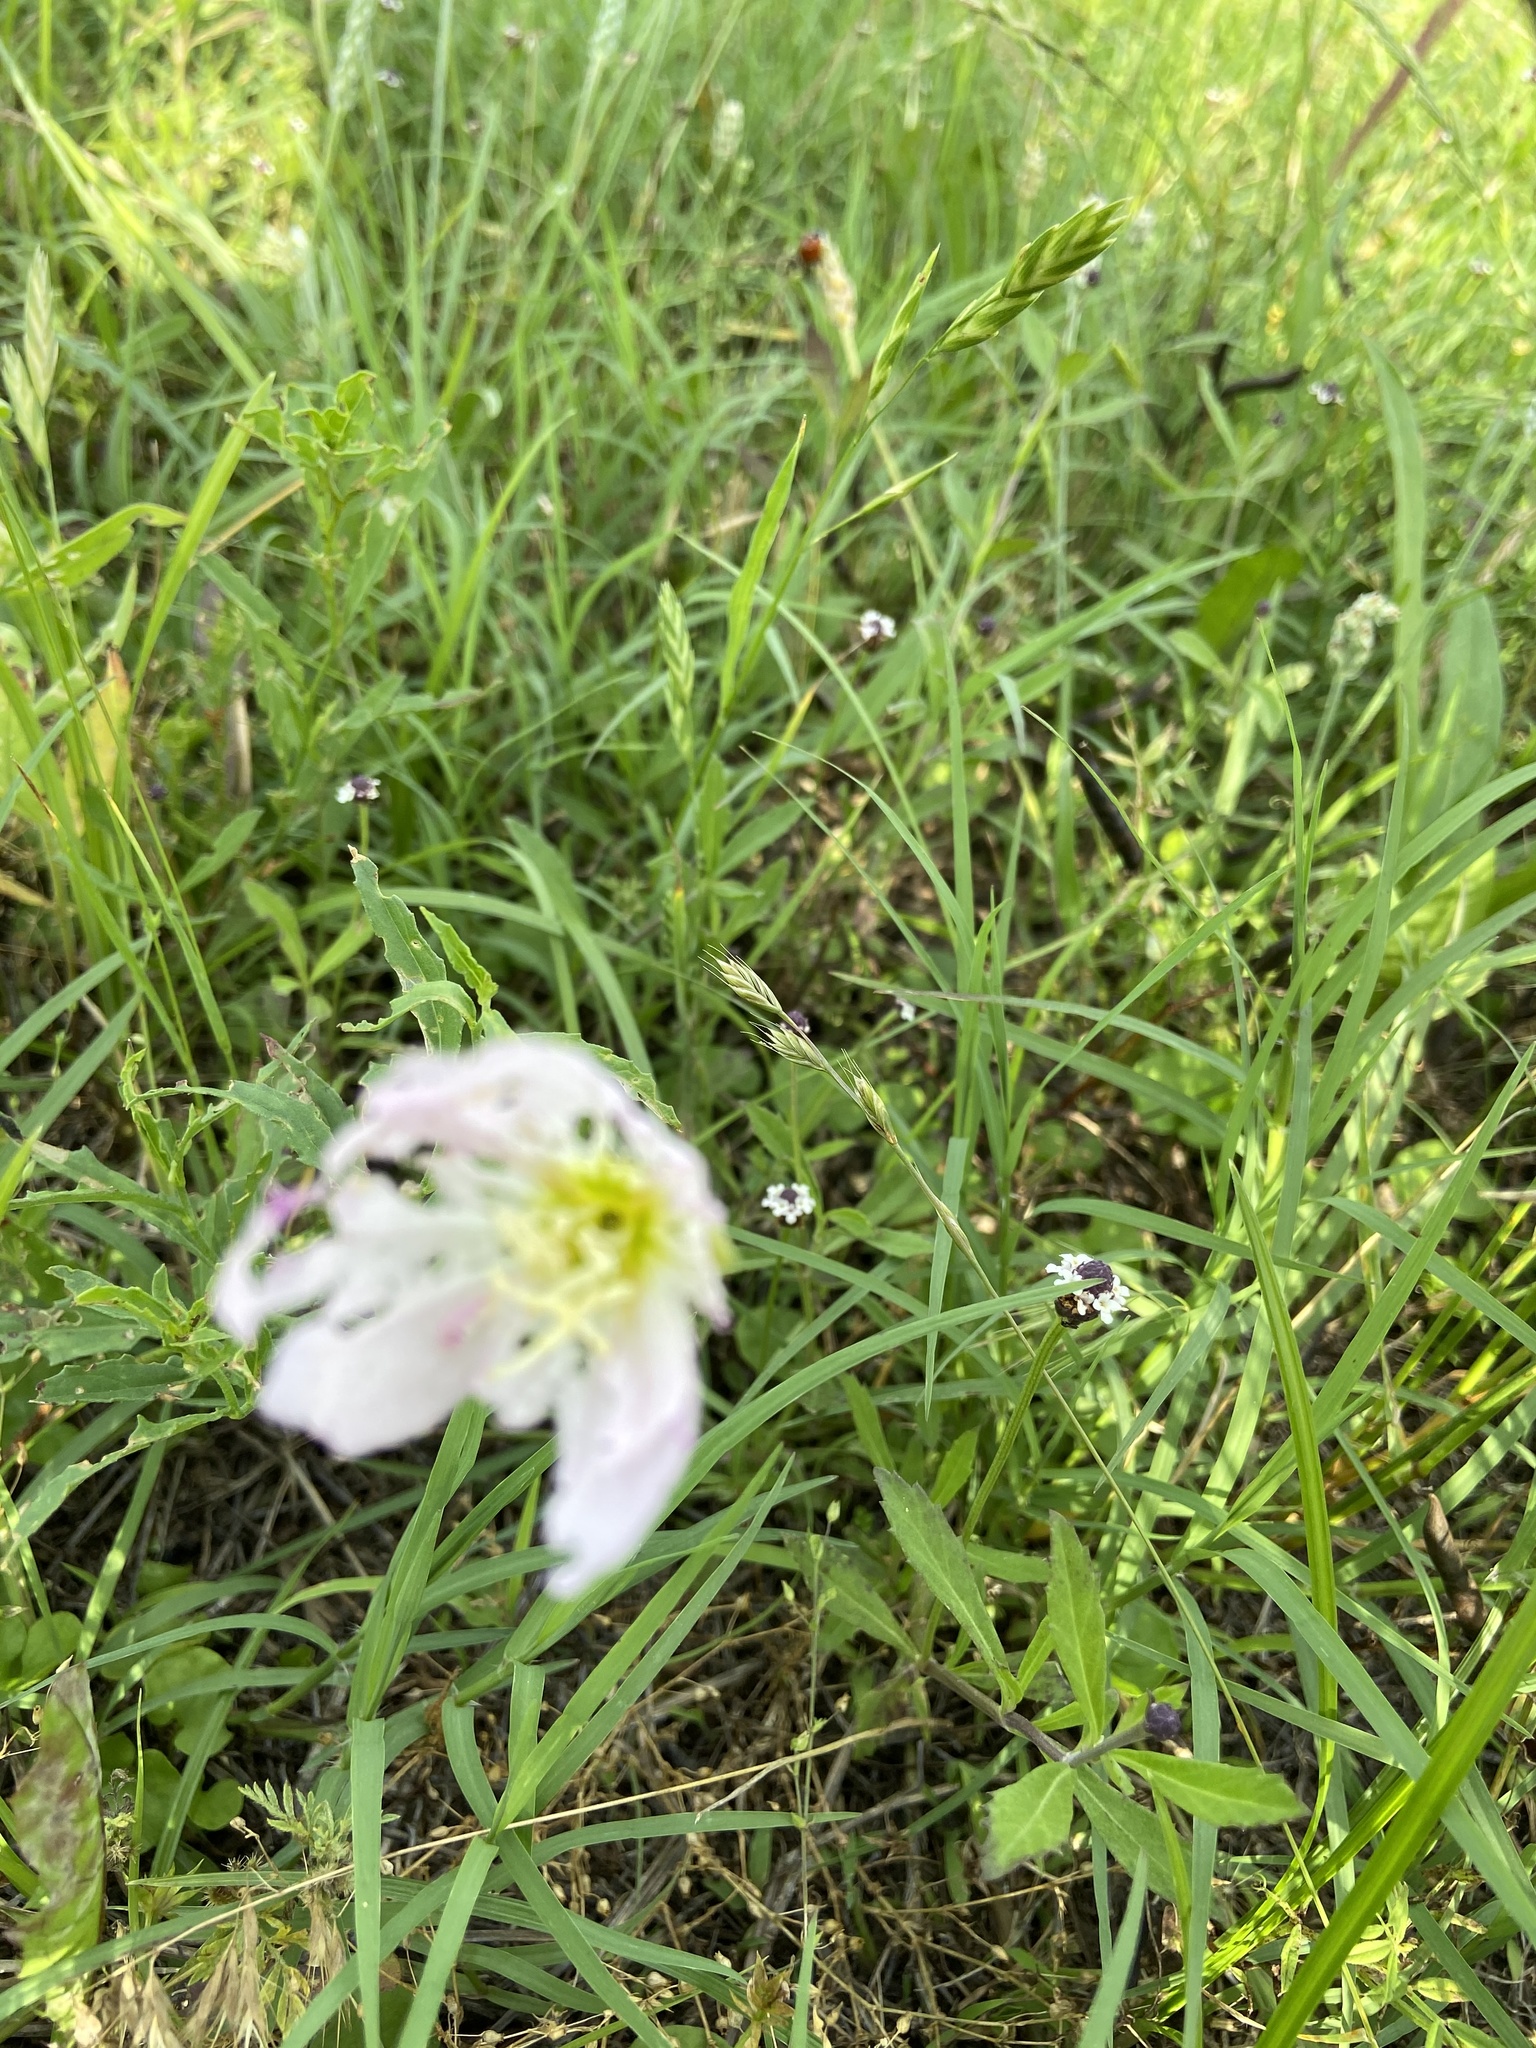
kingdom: Plantae
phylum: Tracheophyta
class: Magnoliopsida
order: Myrtales
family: Onagraceae
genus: Oenothera
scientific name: Oenothera speciosa
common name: White evening-primrose
